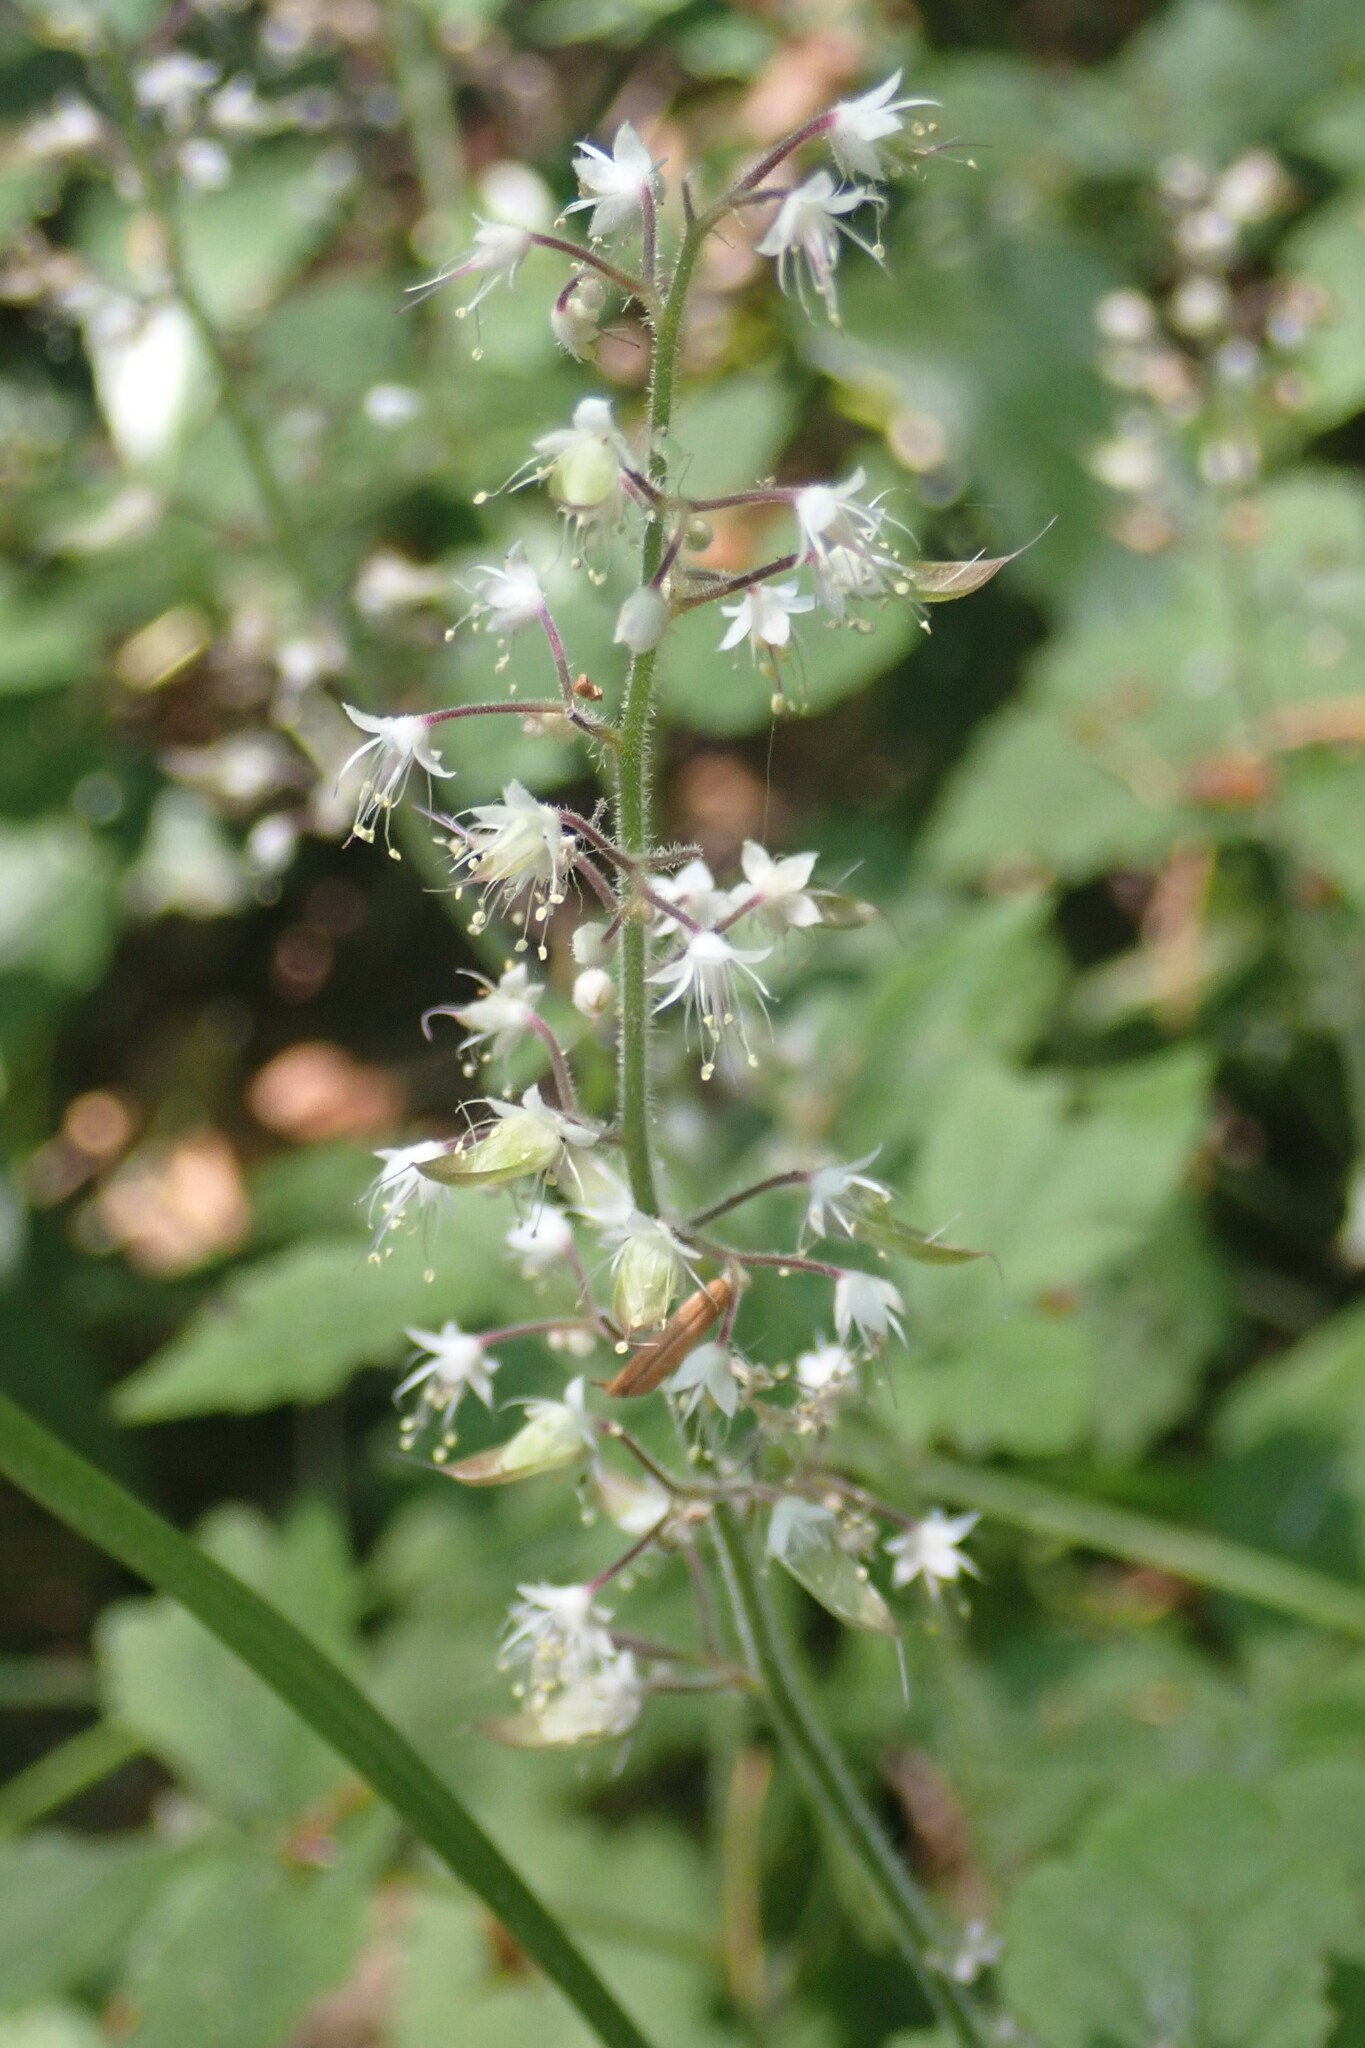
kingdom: Plantae
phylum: Tracheophyta
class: Magnoliopsida
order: Saxifragales
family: Saxifragaceae
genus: Tiarella
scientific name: Tiarella trifoliata
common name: Sugar-scoop
